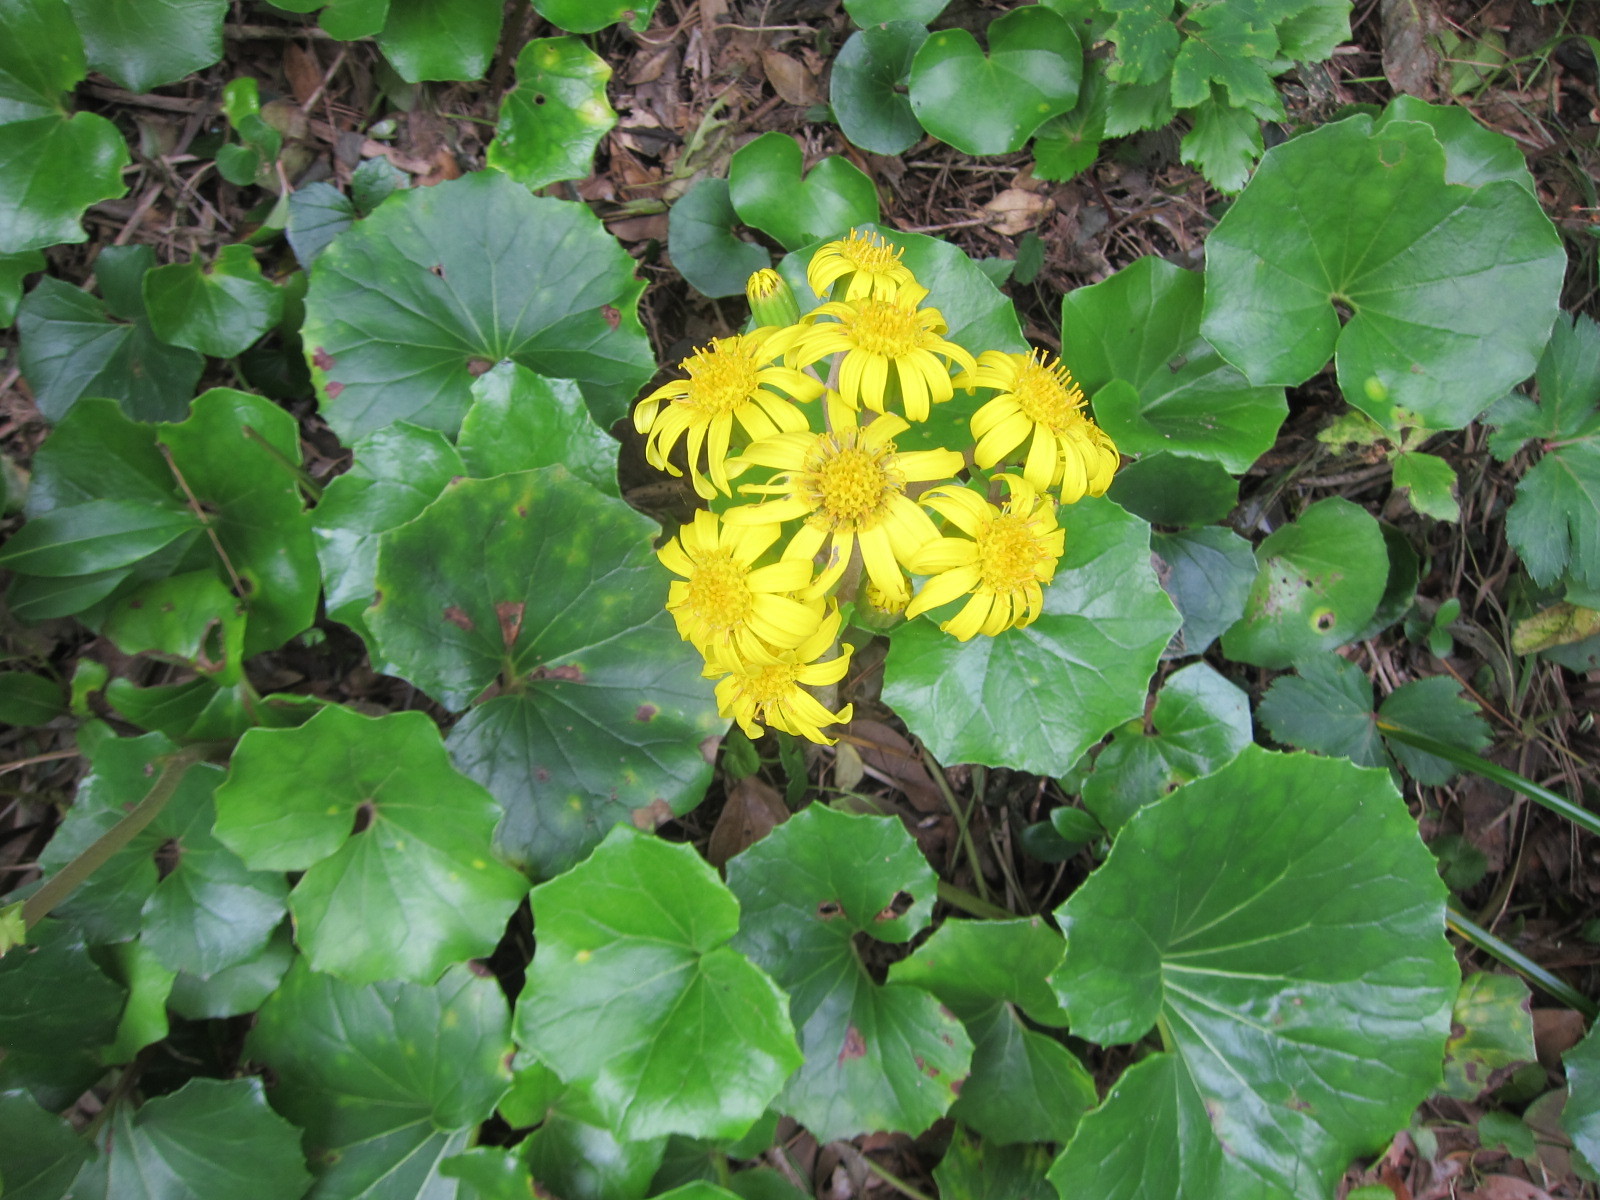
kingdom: Plantae
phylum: Tracheophyta
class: Magnoliopsida
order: Asterales
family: Asteraceae
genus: Farfugium
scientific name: Farfugium japonicum
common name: Leopardplant
